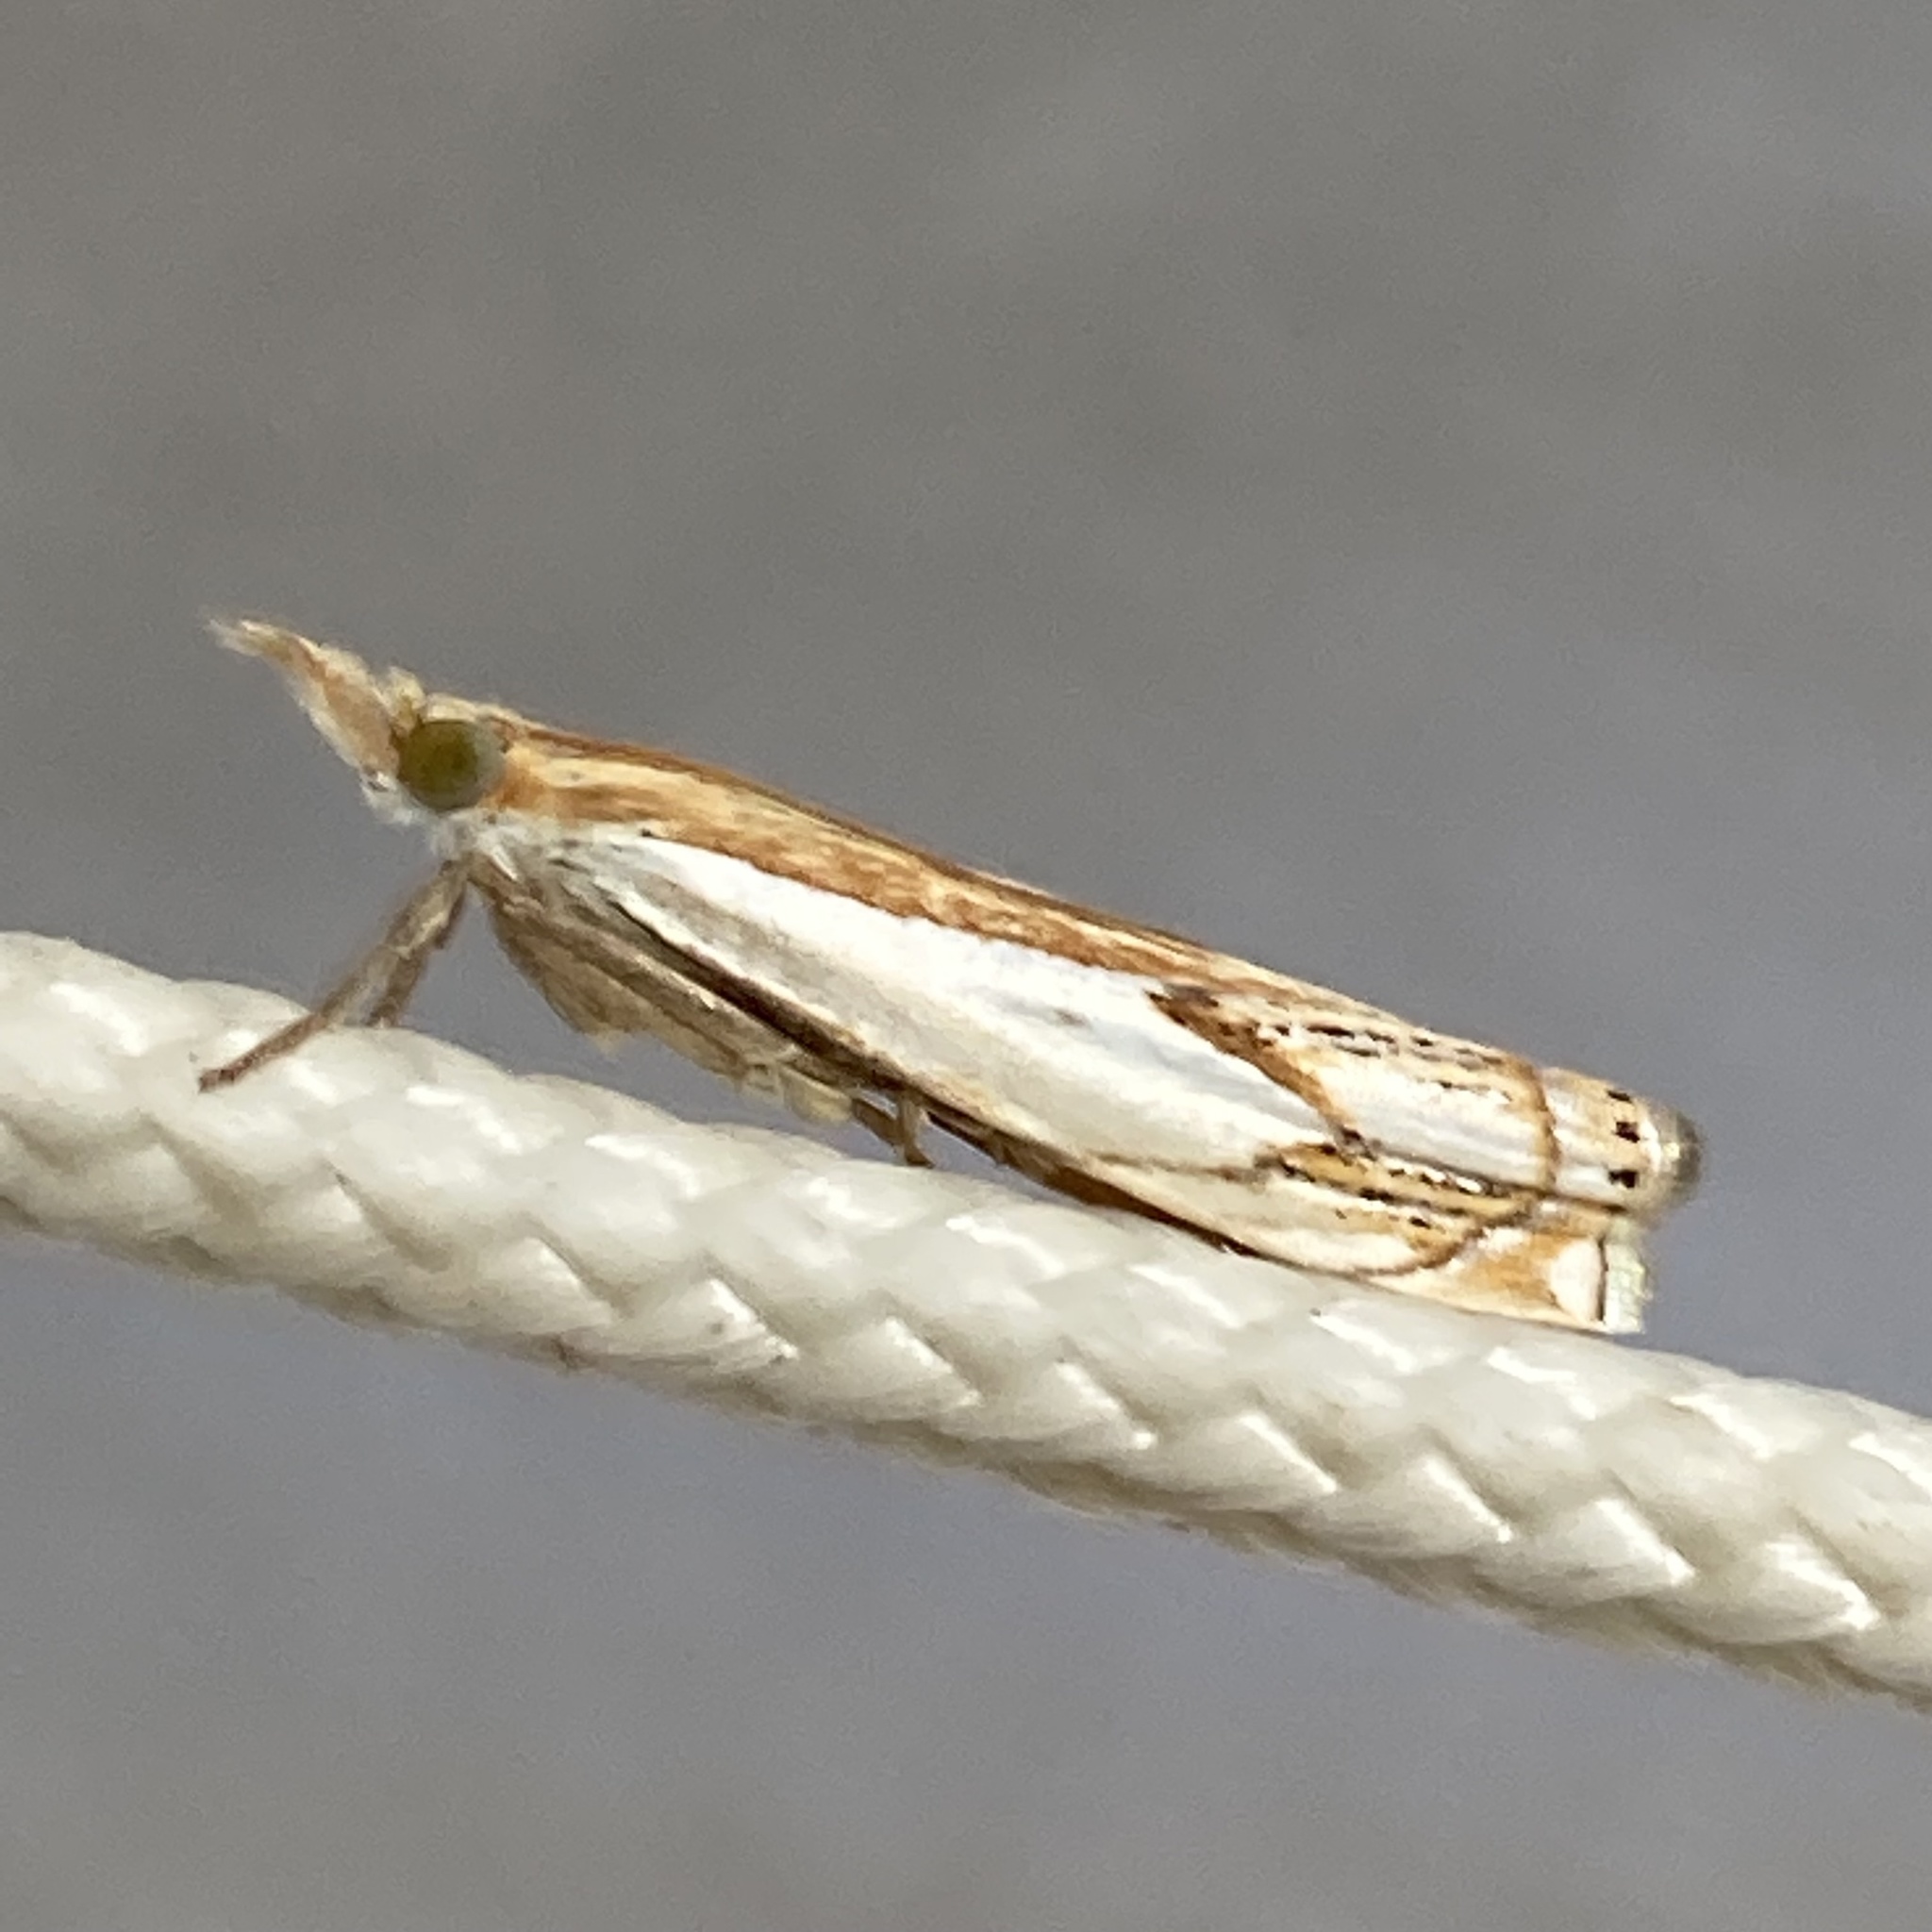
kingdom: Animalia
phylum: Arthropoda
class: Insecta
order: Lepidoptera
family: Crambidae
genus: Crambus
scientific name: Crambus agitatellus
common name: Double-banded grass-veneer
